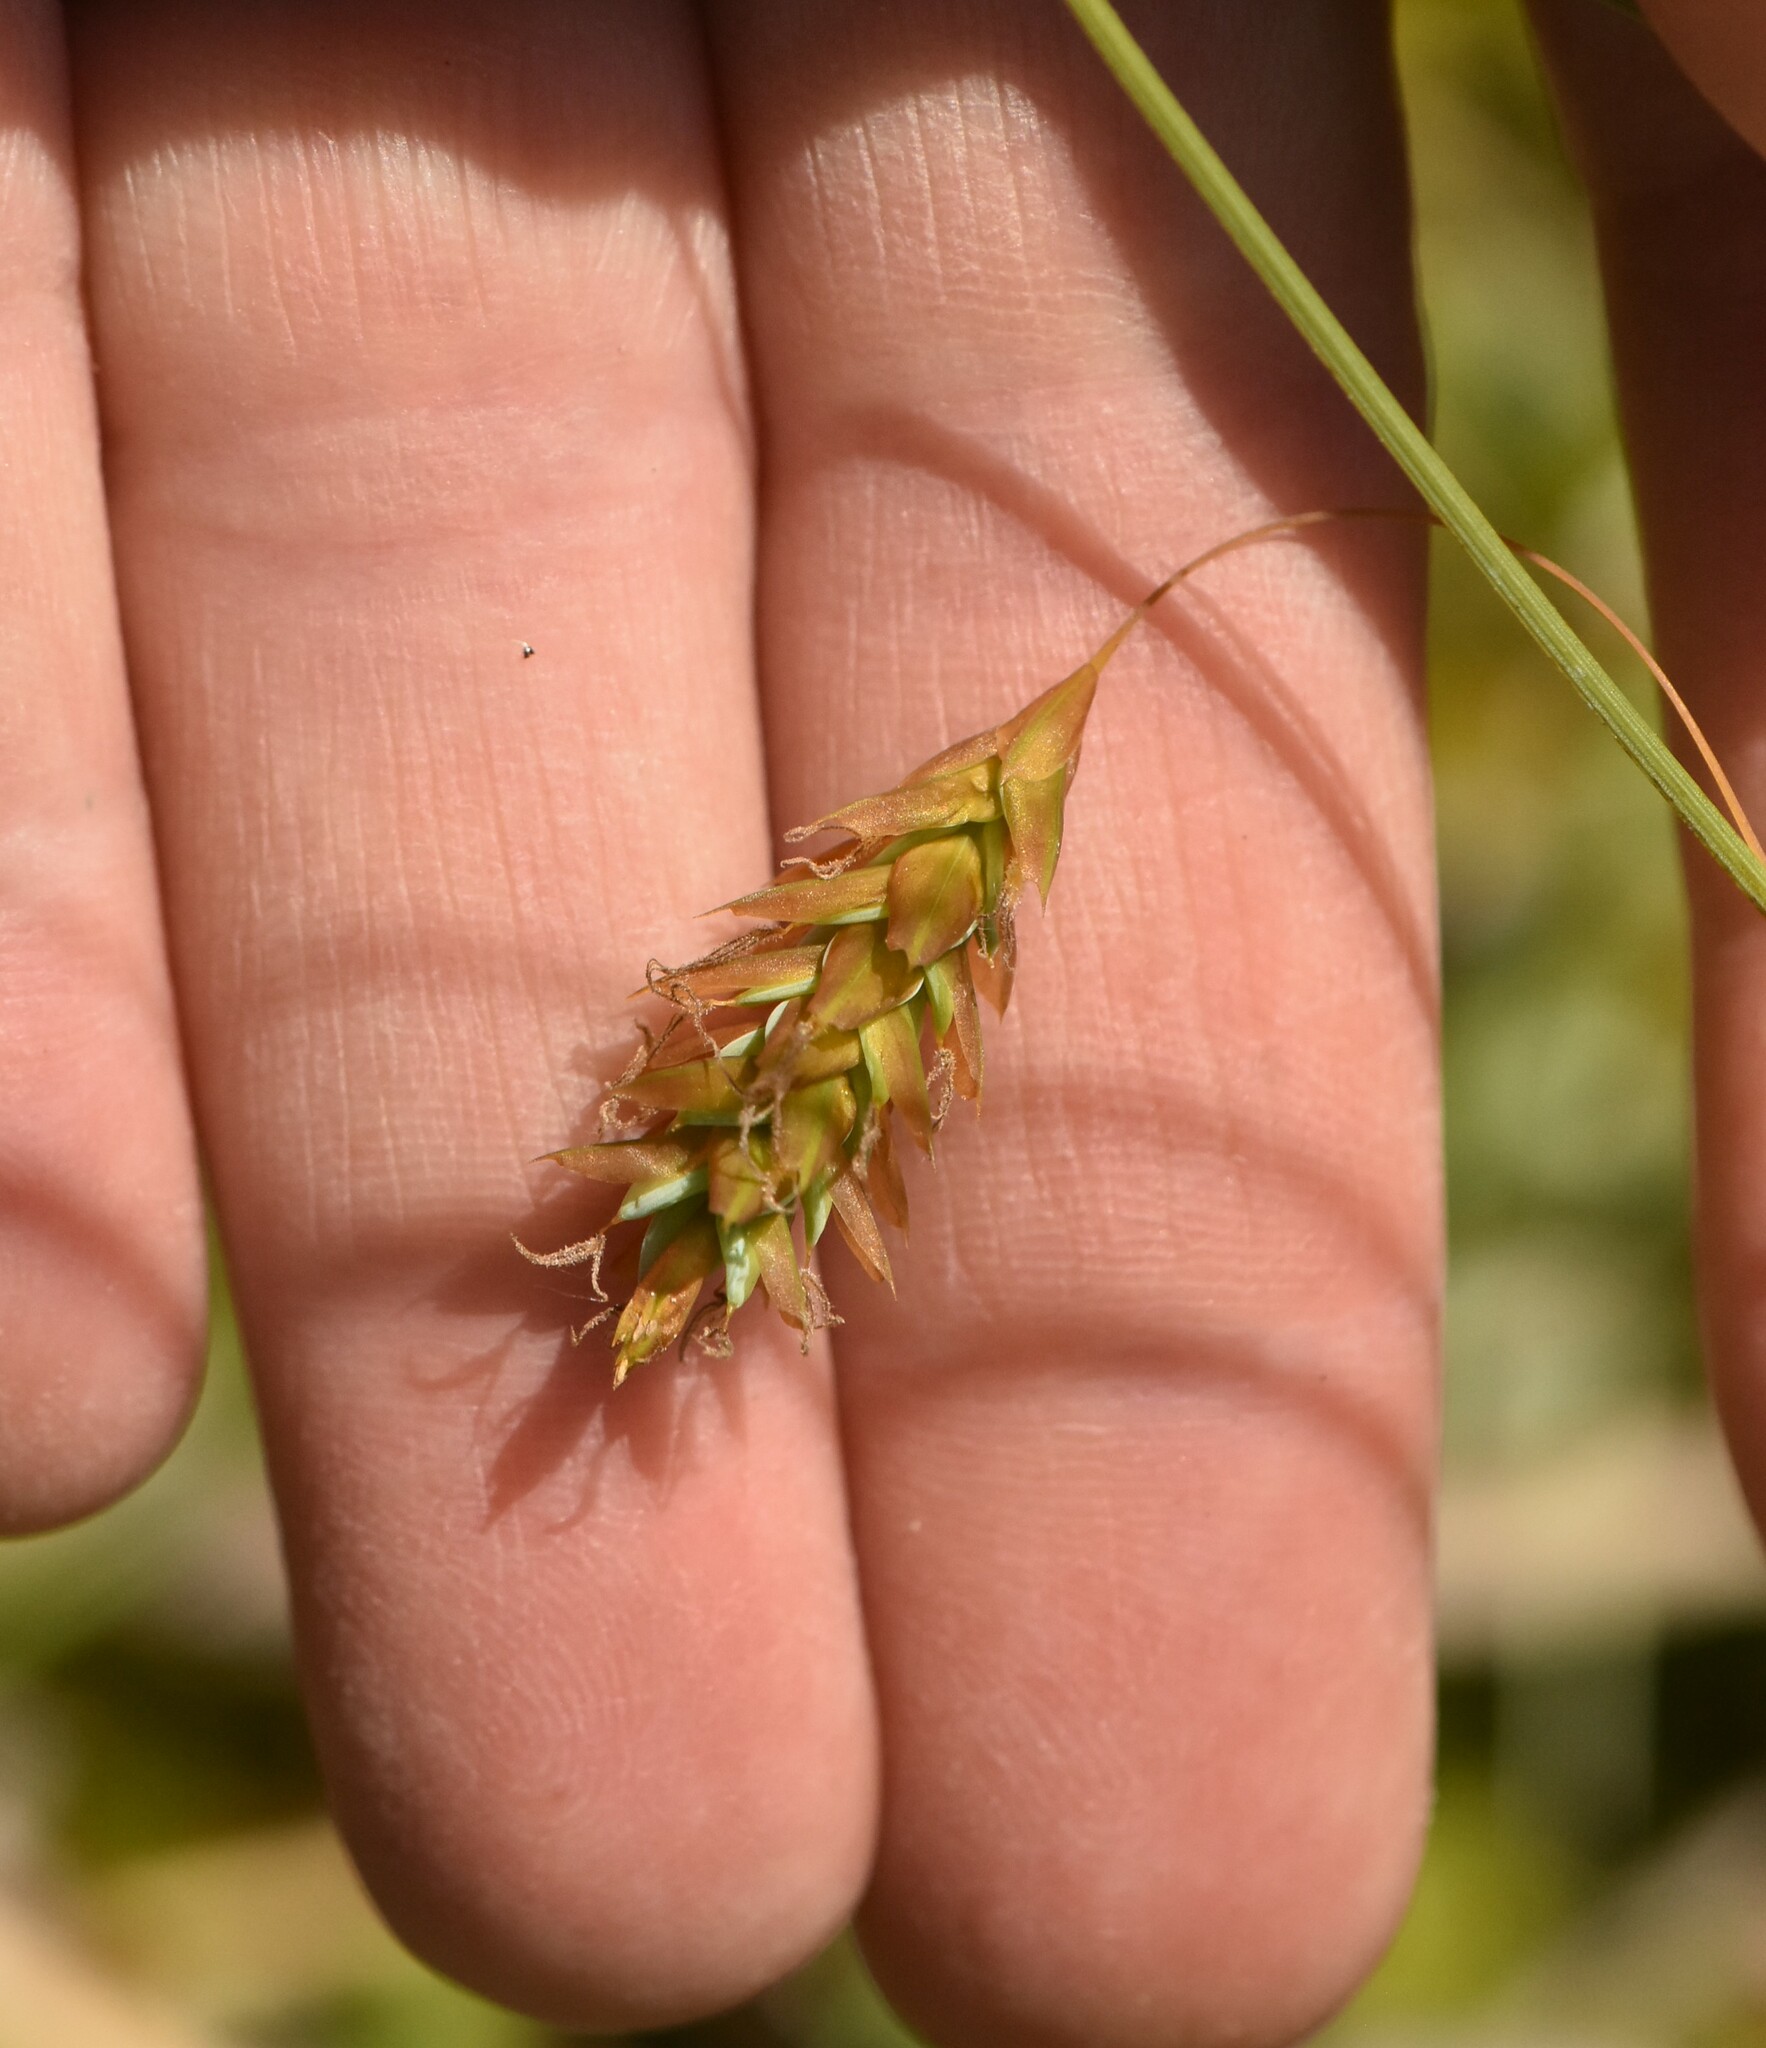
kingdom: Plantae
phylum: Tracheophyta
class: Liliopsida
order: Poales
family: Cyperaceae
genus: Carex
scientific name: Carex limosa
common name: Bog sedge
